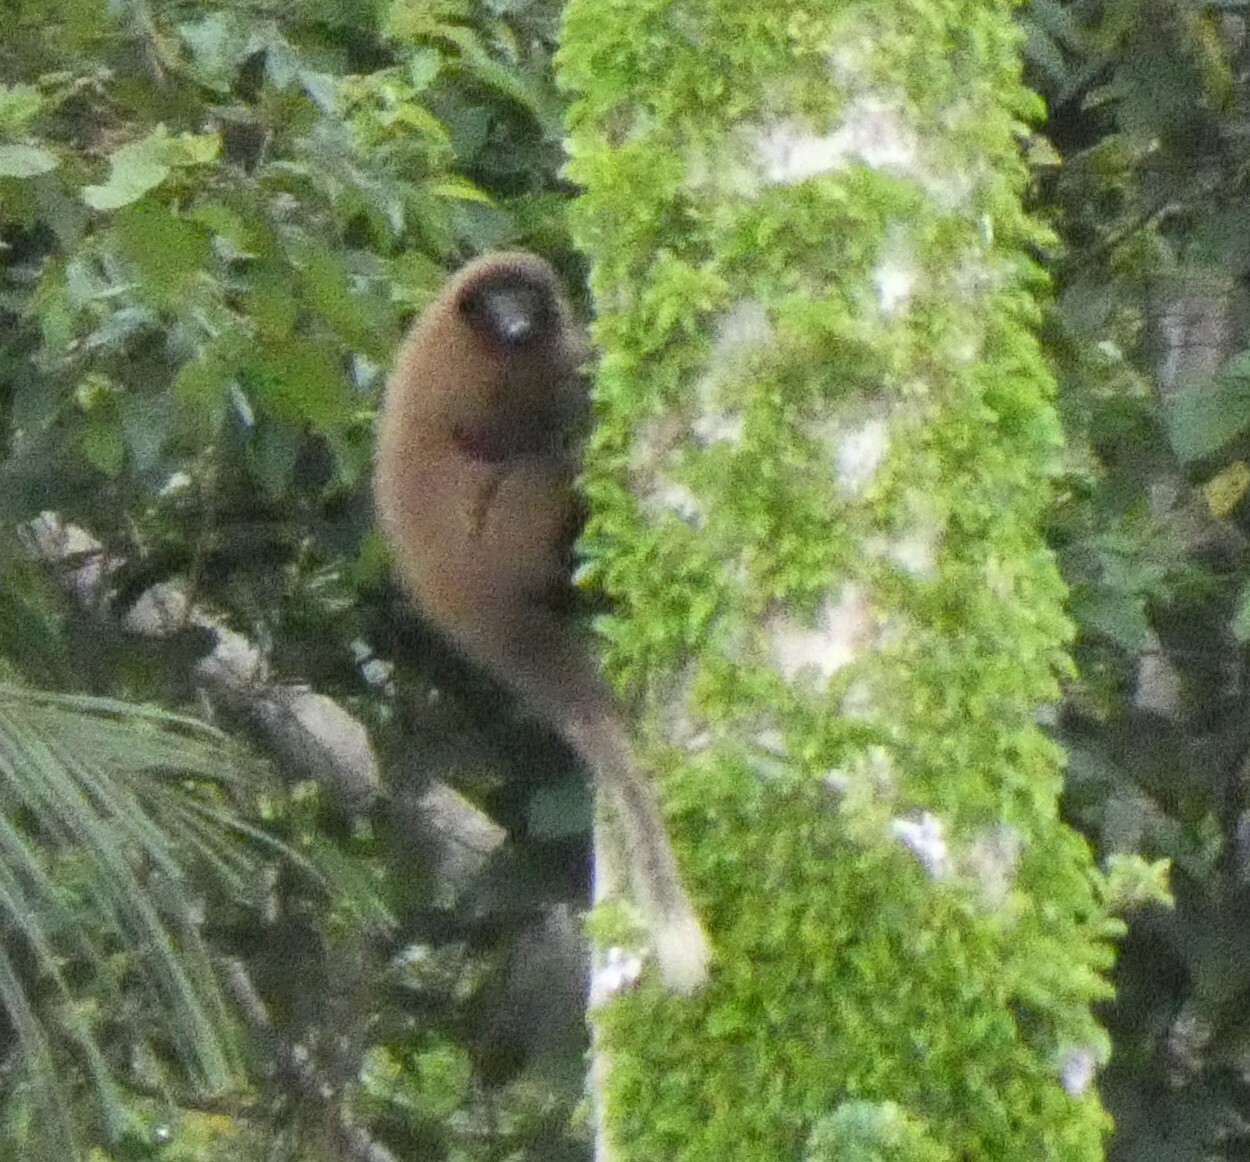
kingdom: Animalia
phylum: Chordata
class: Mammalia
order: Primates
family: Pitheciidae
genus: Plecturocebus
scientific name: Plecturocebus urubambensis
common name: Urubamba brown titi
